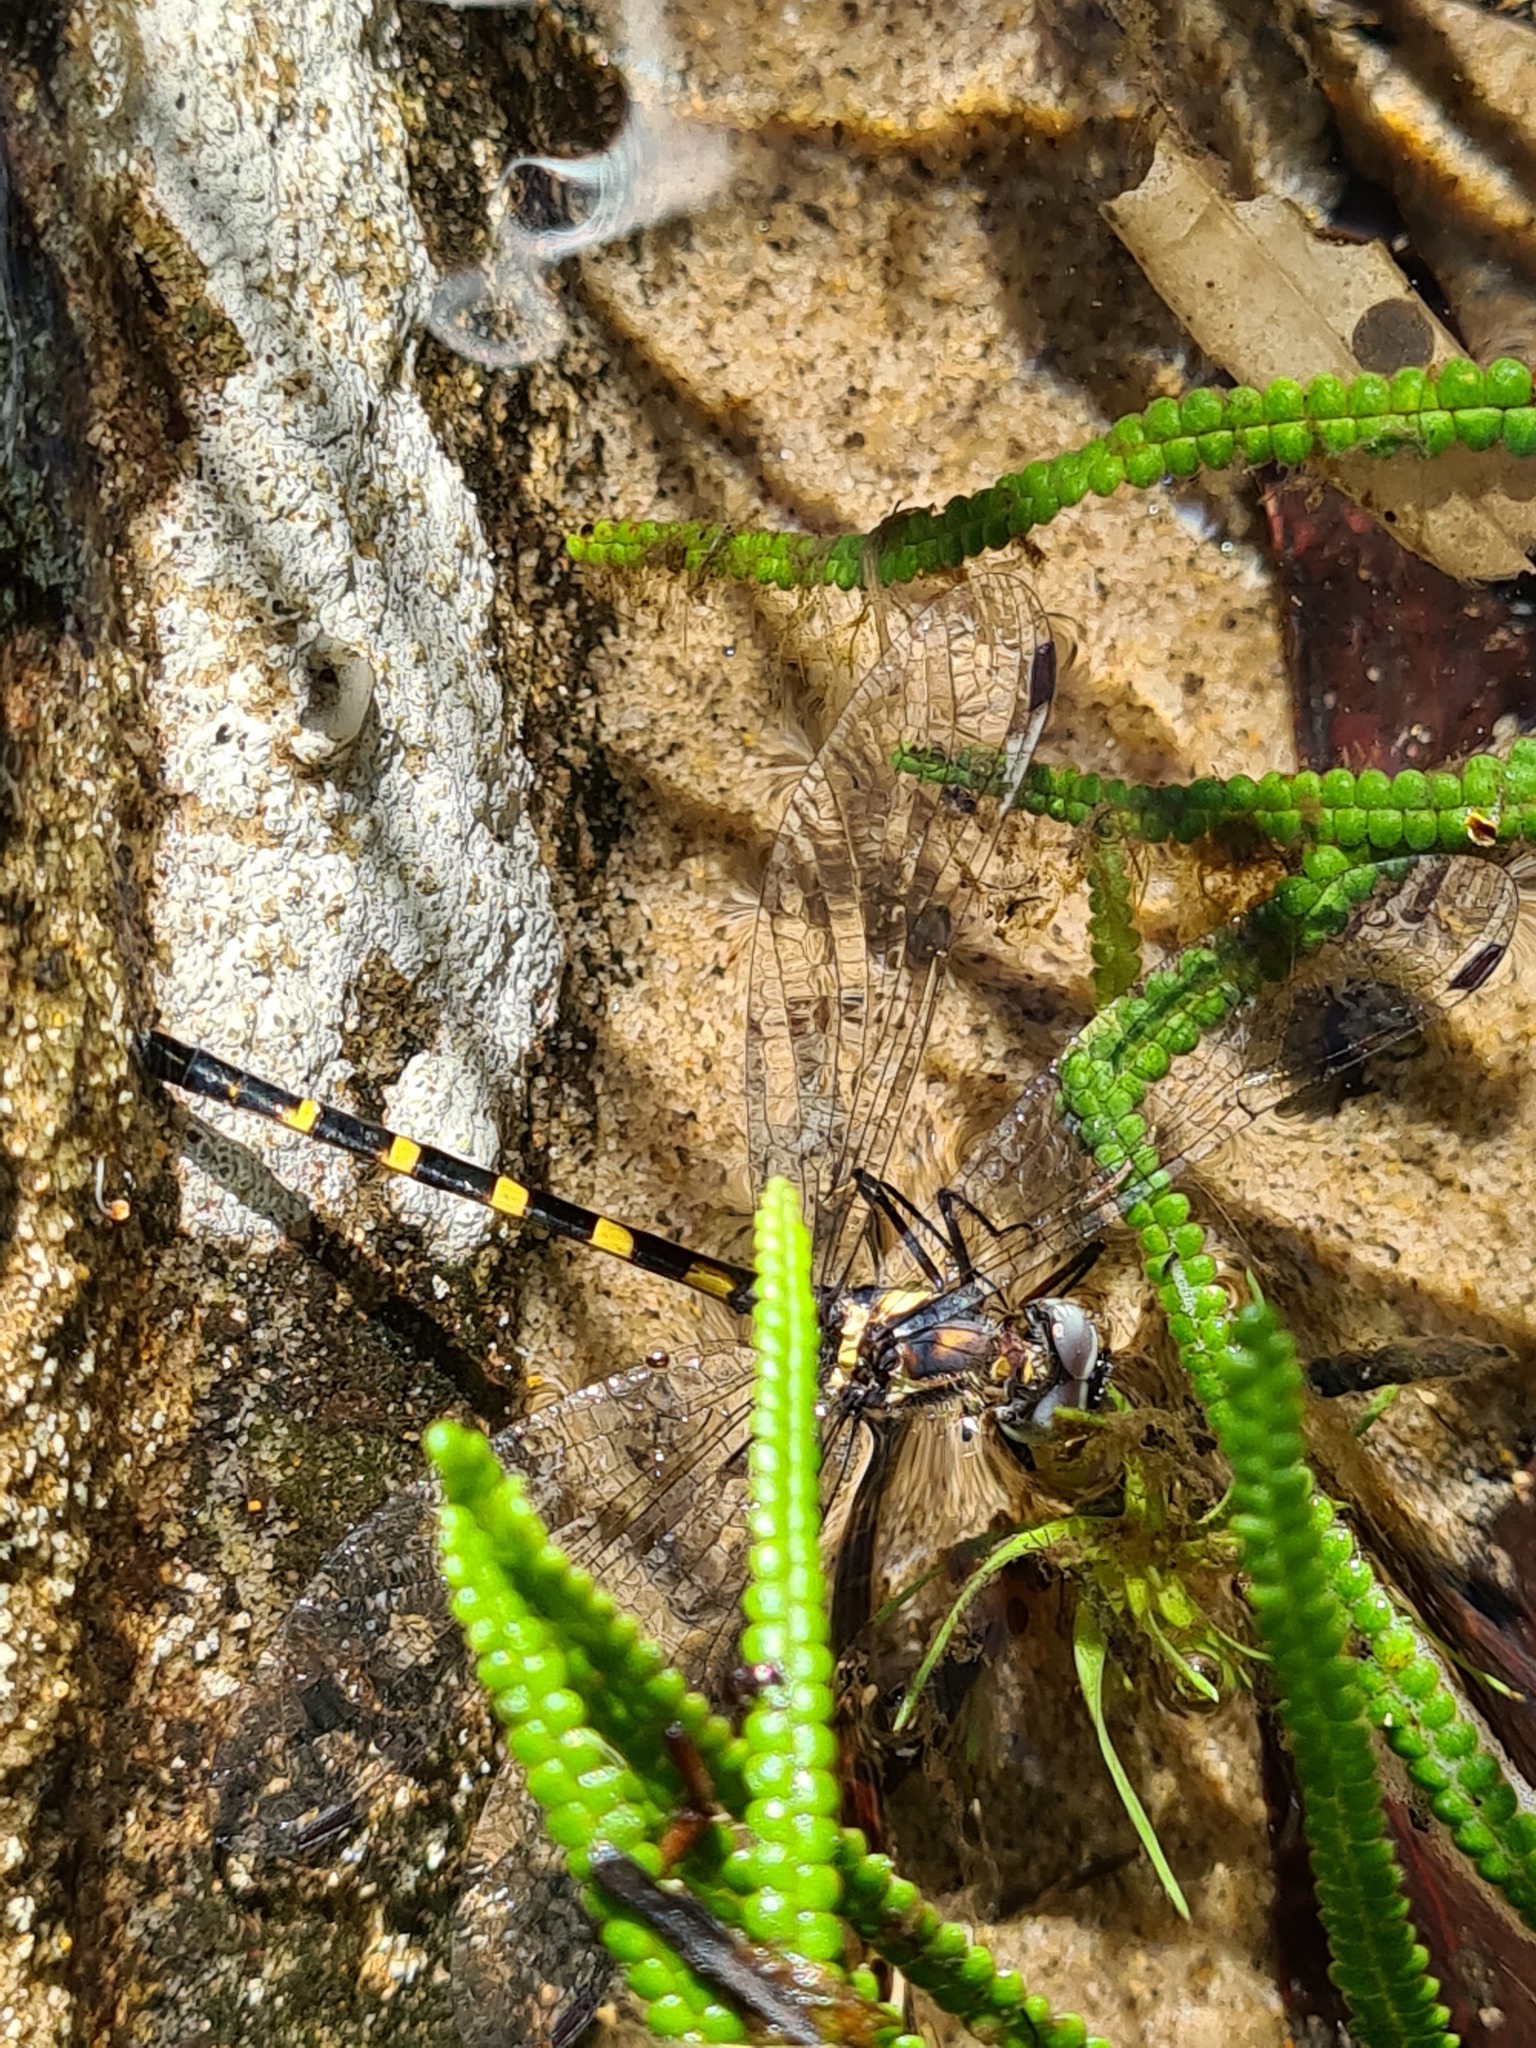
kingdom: Animalia
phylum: Arthropoda
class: Insecta
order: Odonata
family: Corduliidae
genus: Cordulephya
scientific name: Cordulephya pygmaea
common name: Common shutwing
